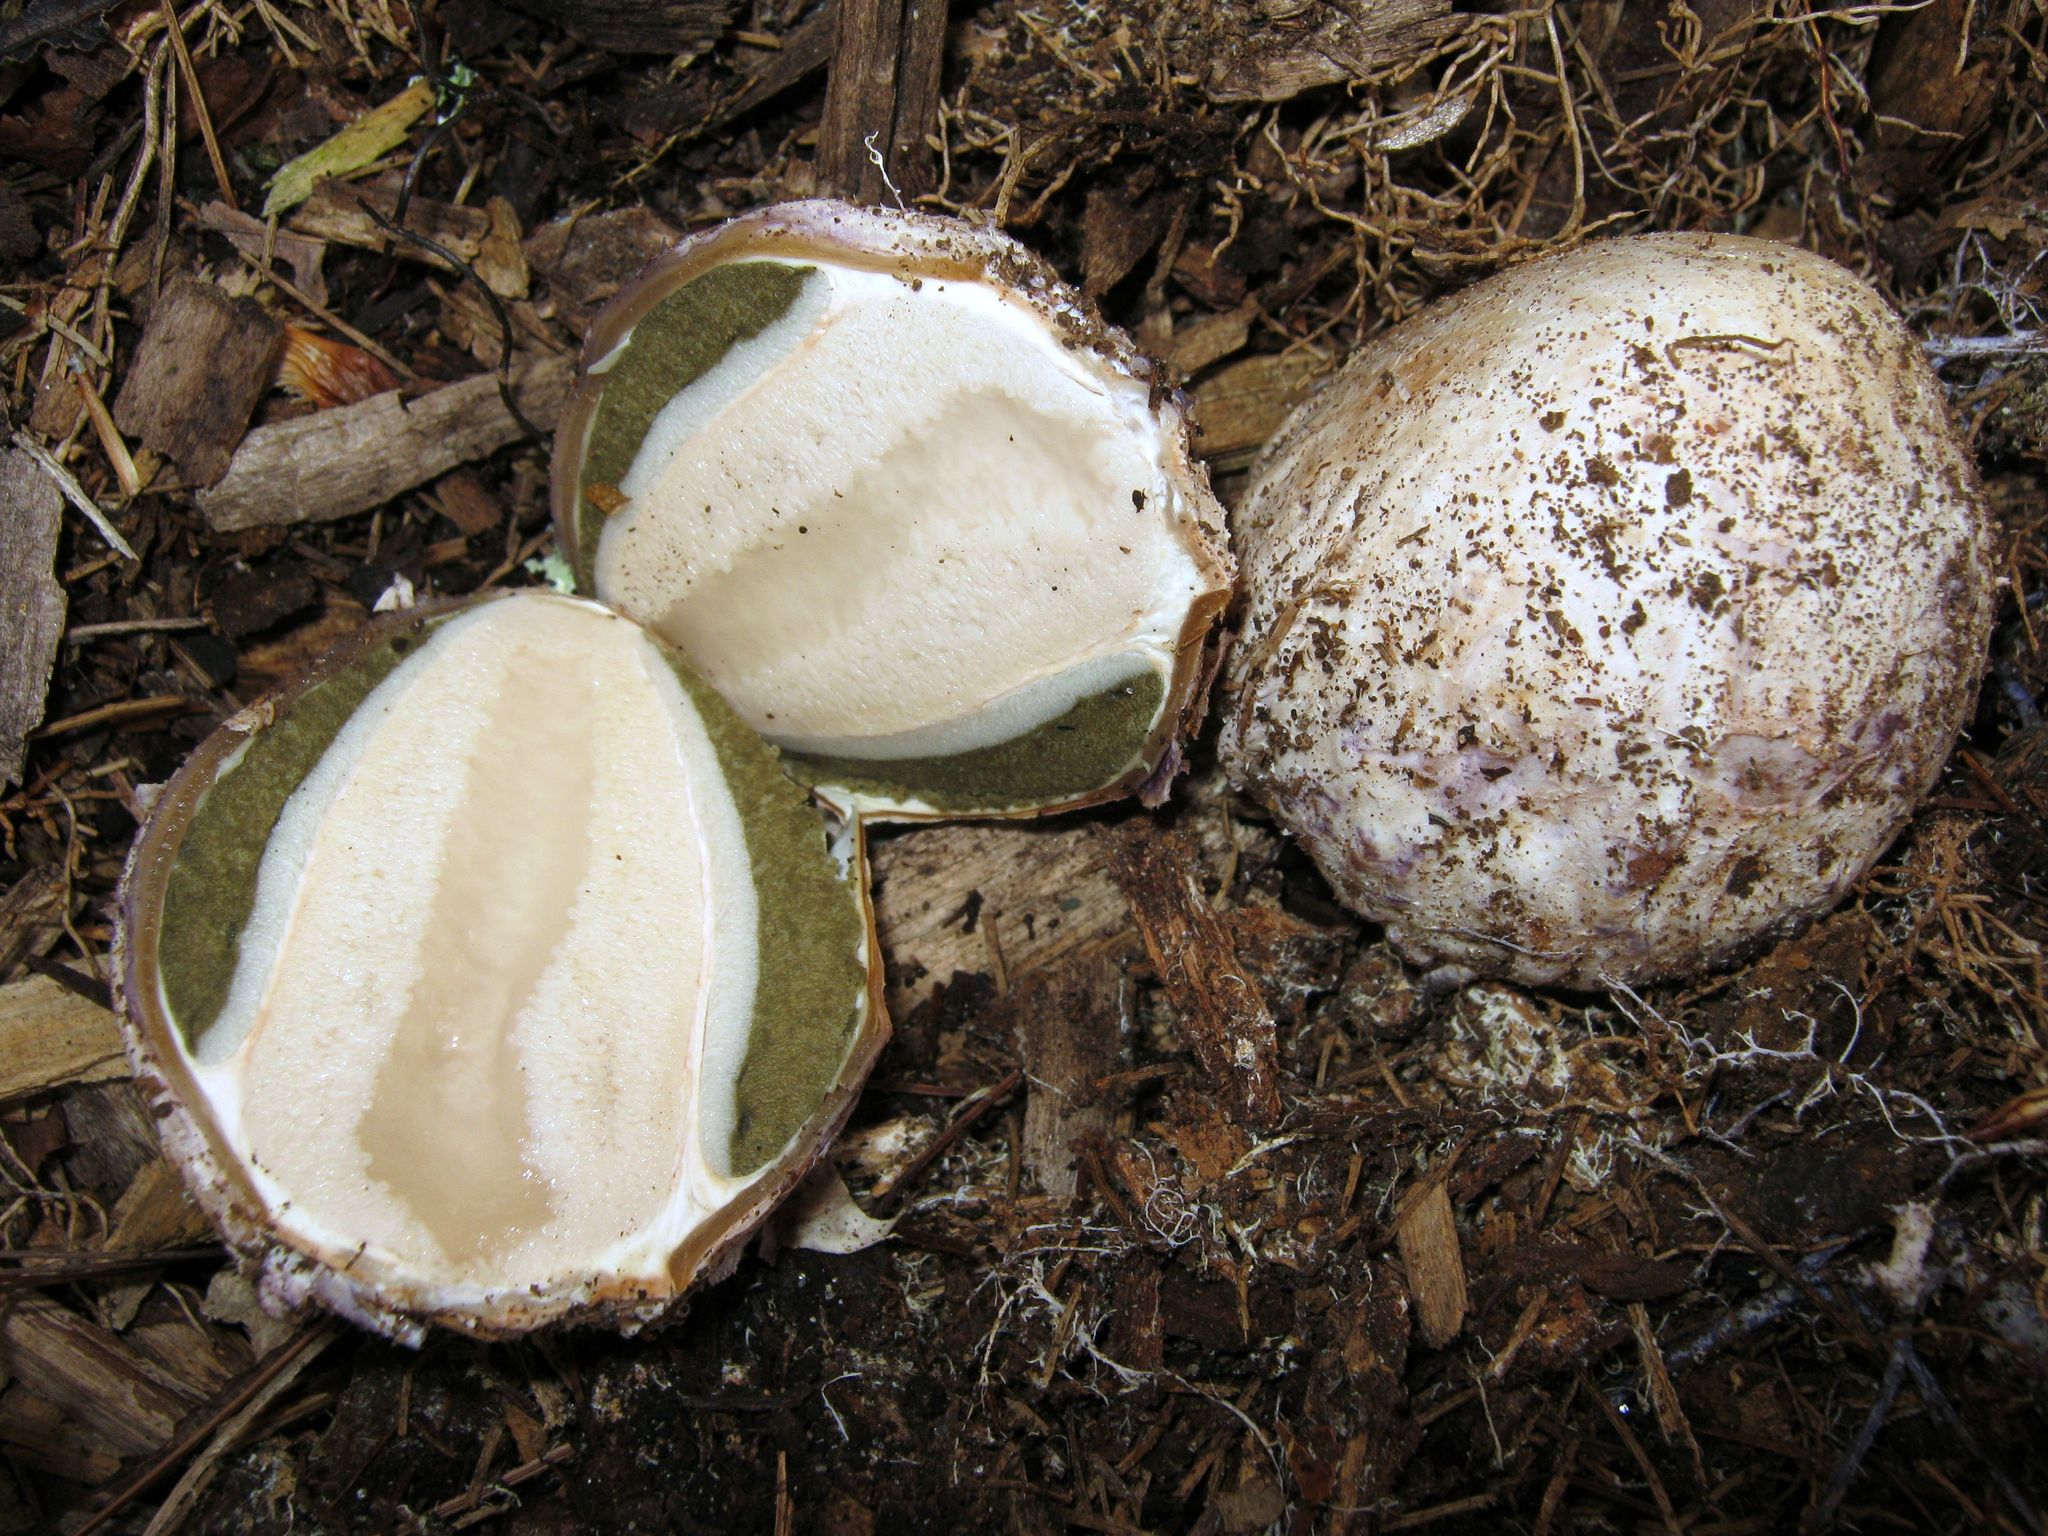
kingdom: Fungi
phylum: Basidiomycota
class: Agaricomycetes
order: Phallales
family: Phallaceae
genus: Phallus
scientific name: Phallus ravenelii
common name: Ravenel's stinkhorn
